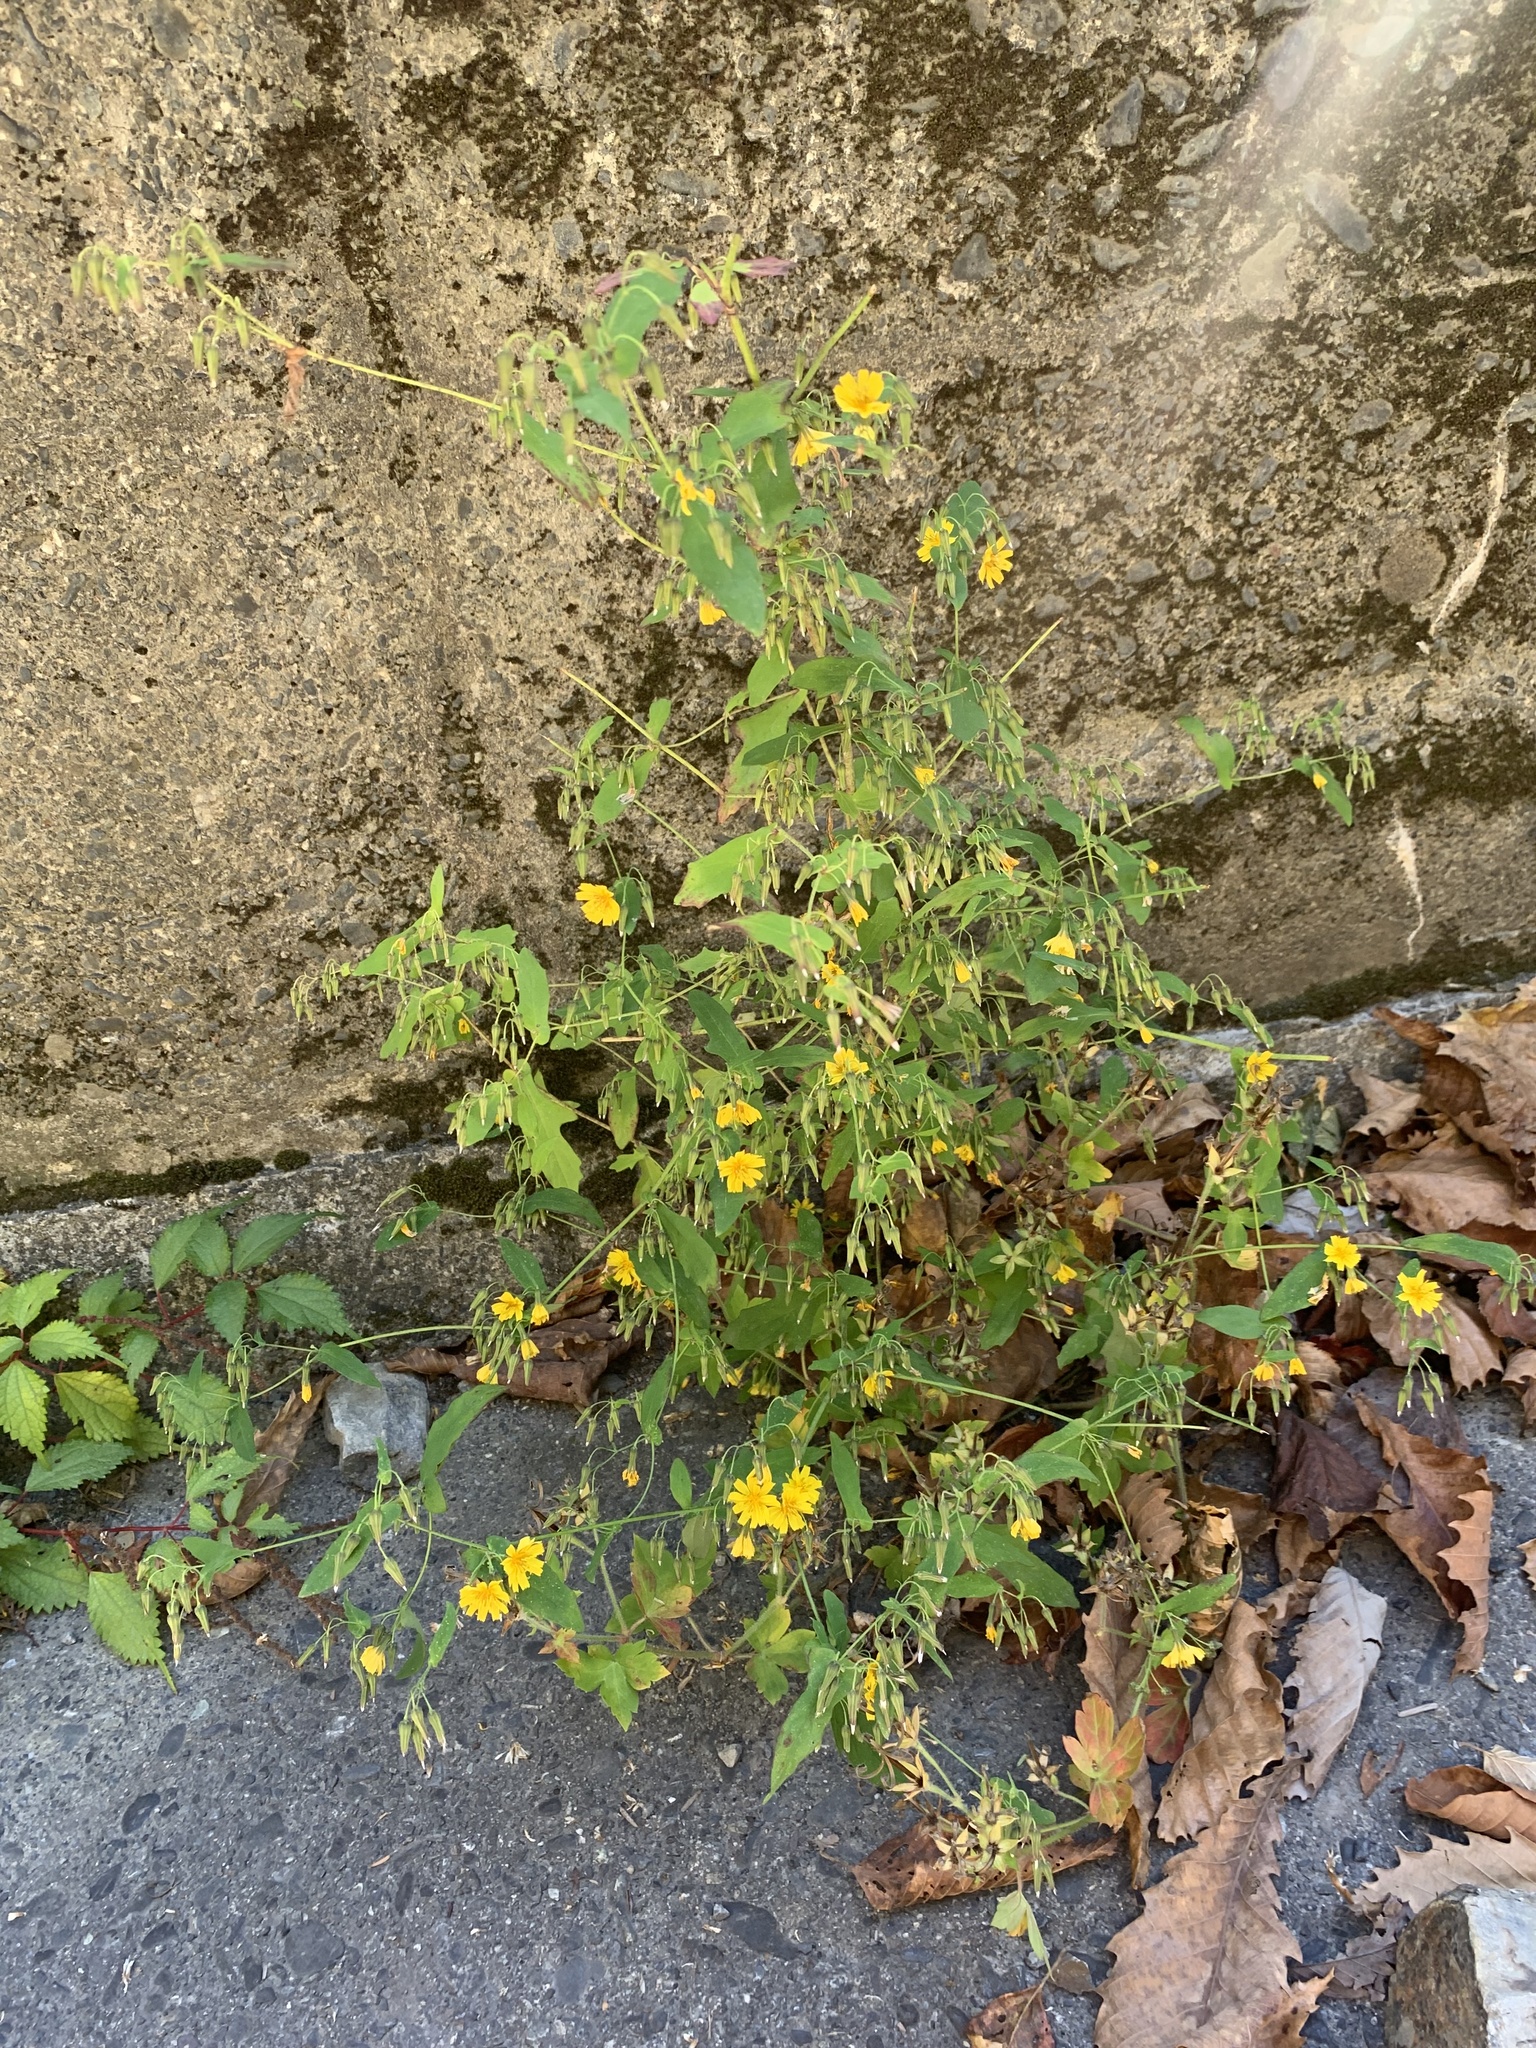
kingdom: Plantae
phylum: Tracheophyta
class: Magnoliopsida
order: Asterales
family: Asteraceae
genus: Crepidiastrum
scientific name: Crepidiastrum denticulatum
